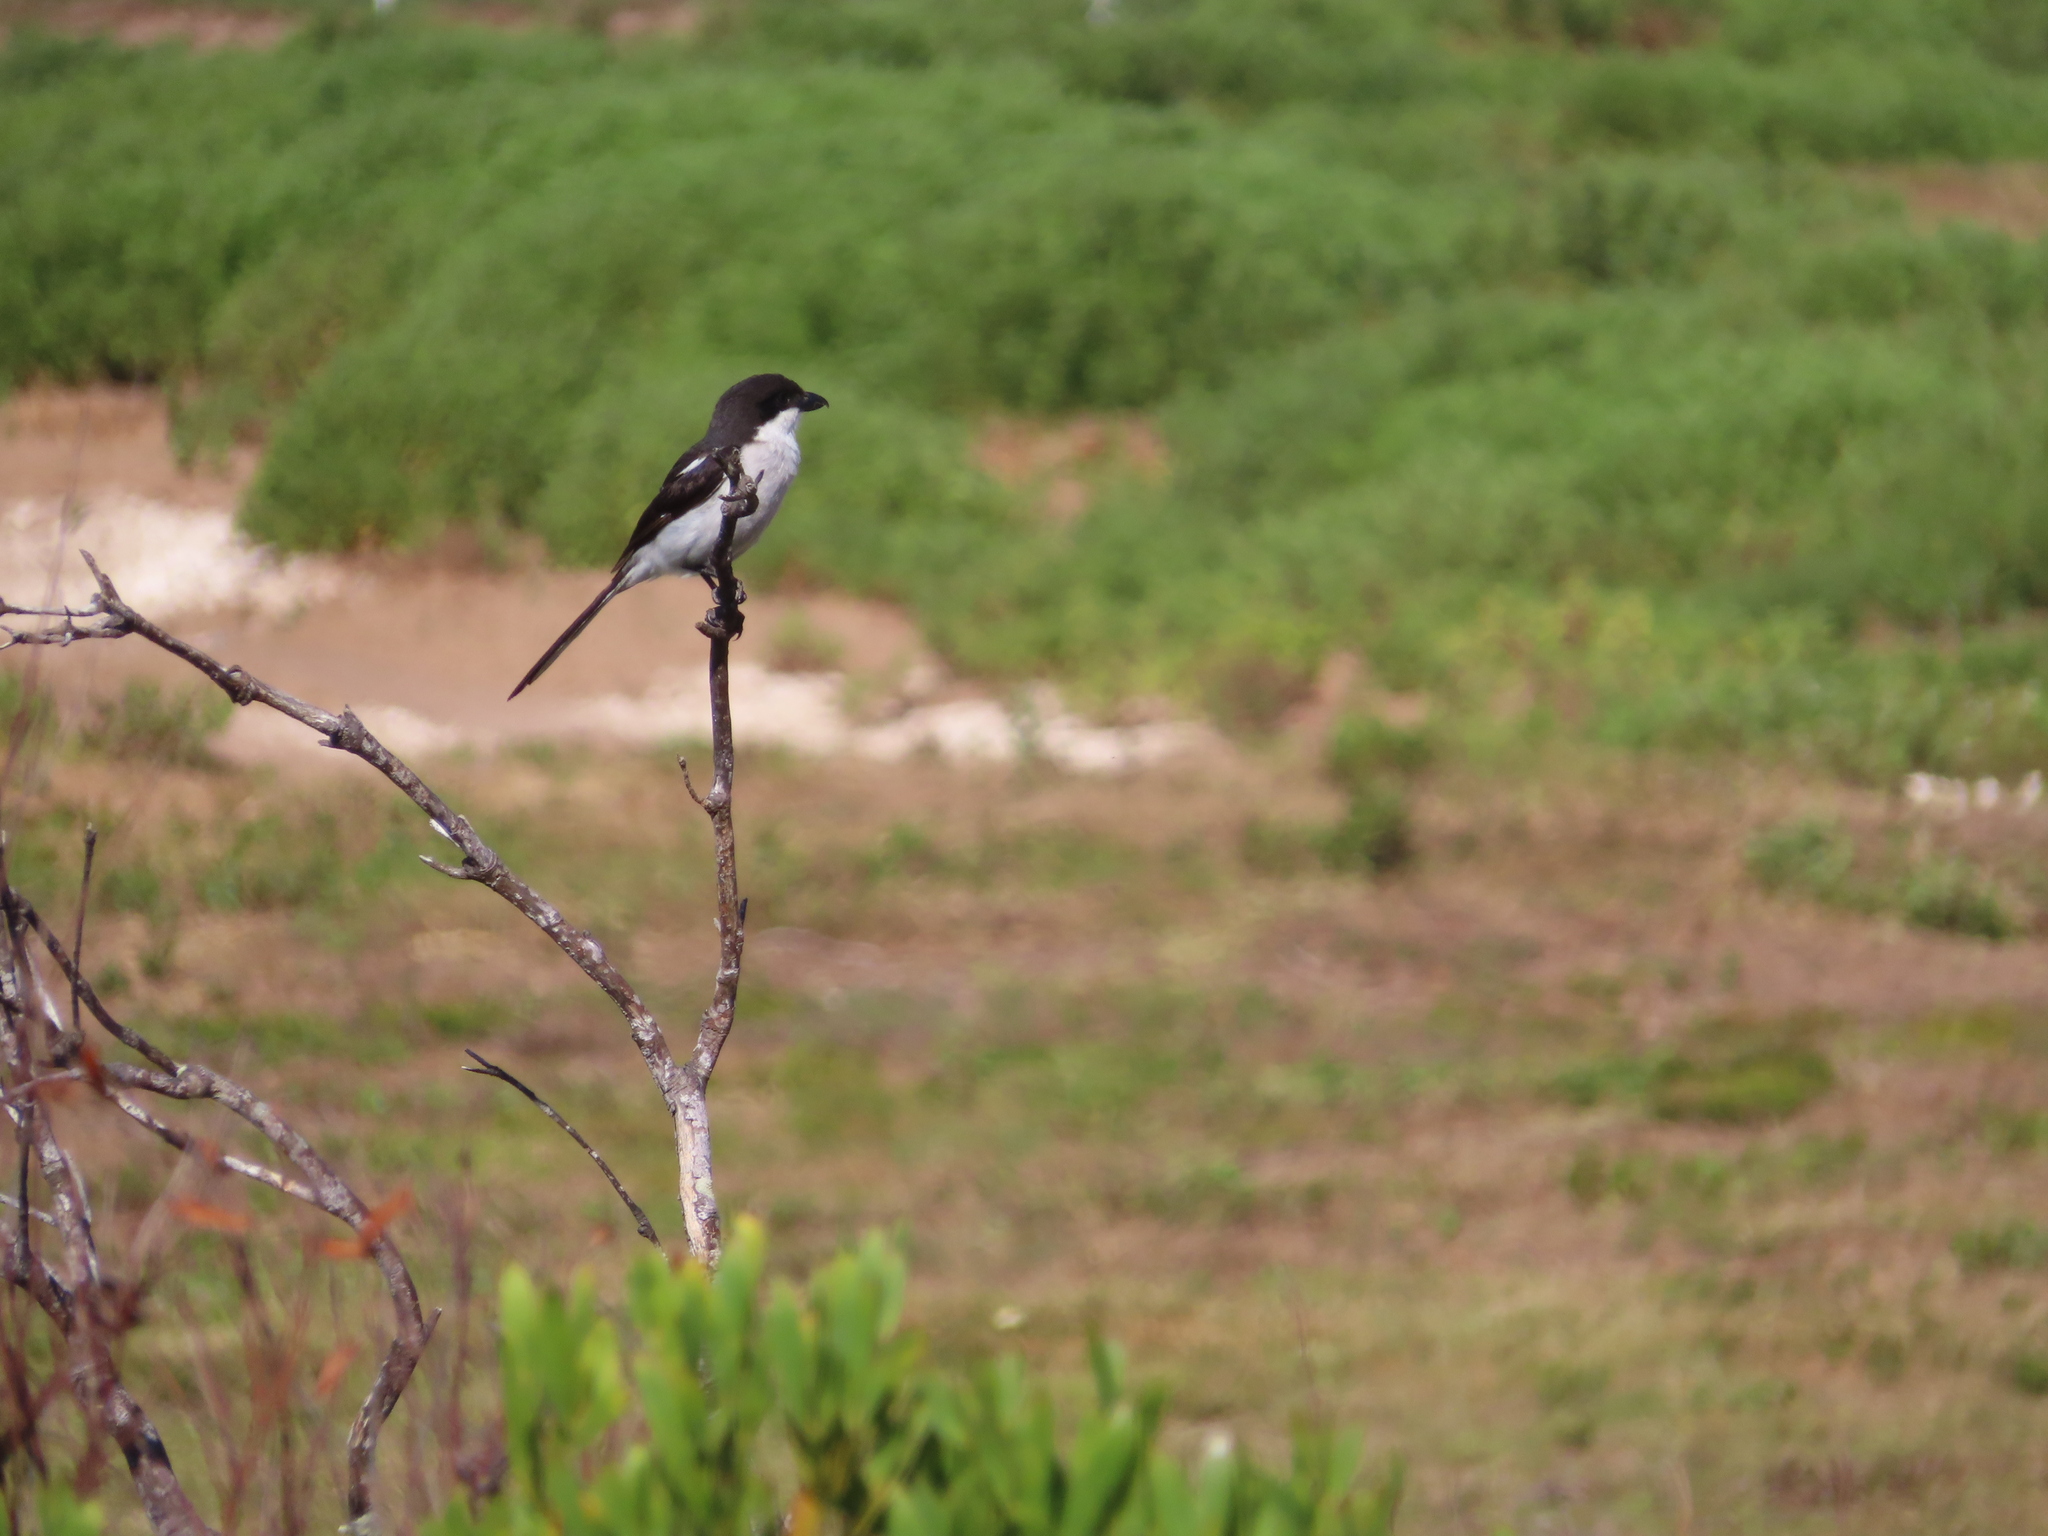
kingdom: Animalia
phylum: Chordata
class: Aves
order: Passeriformes
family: Laniidae
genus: Lanius
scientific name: Lanius collaris
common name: Southern fiscal
